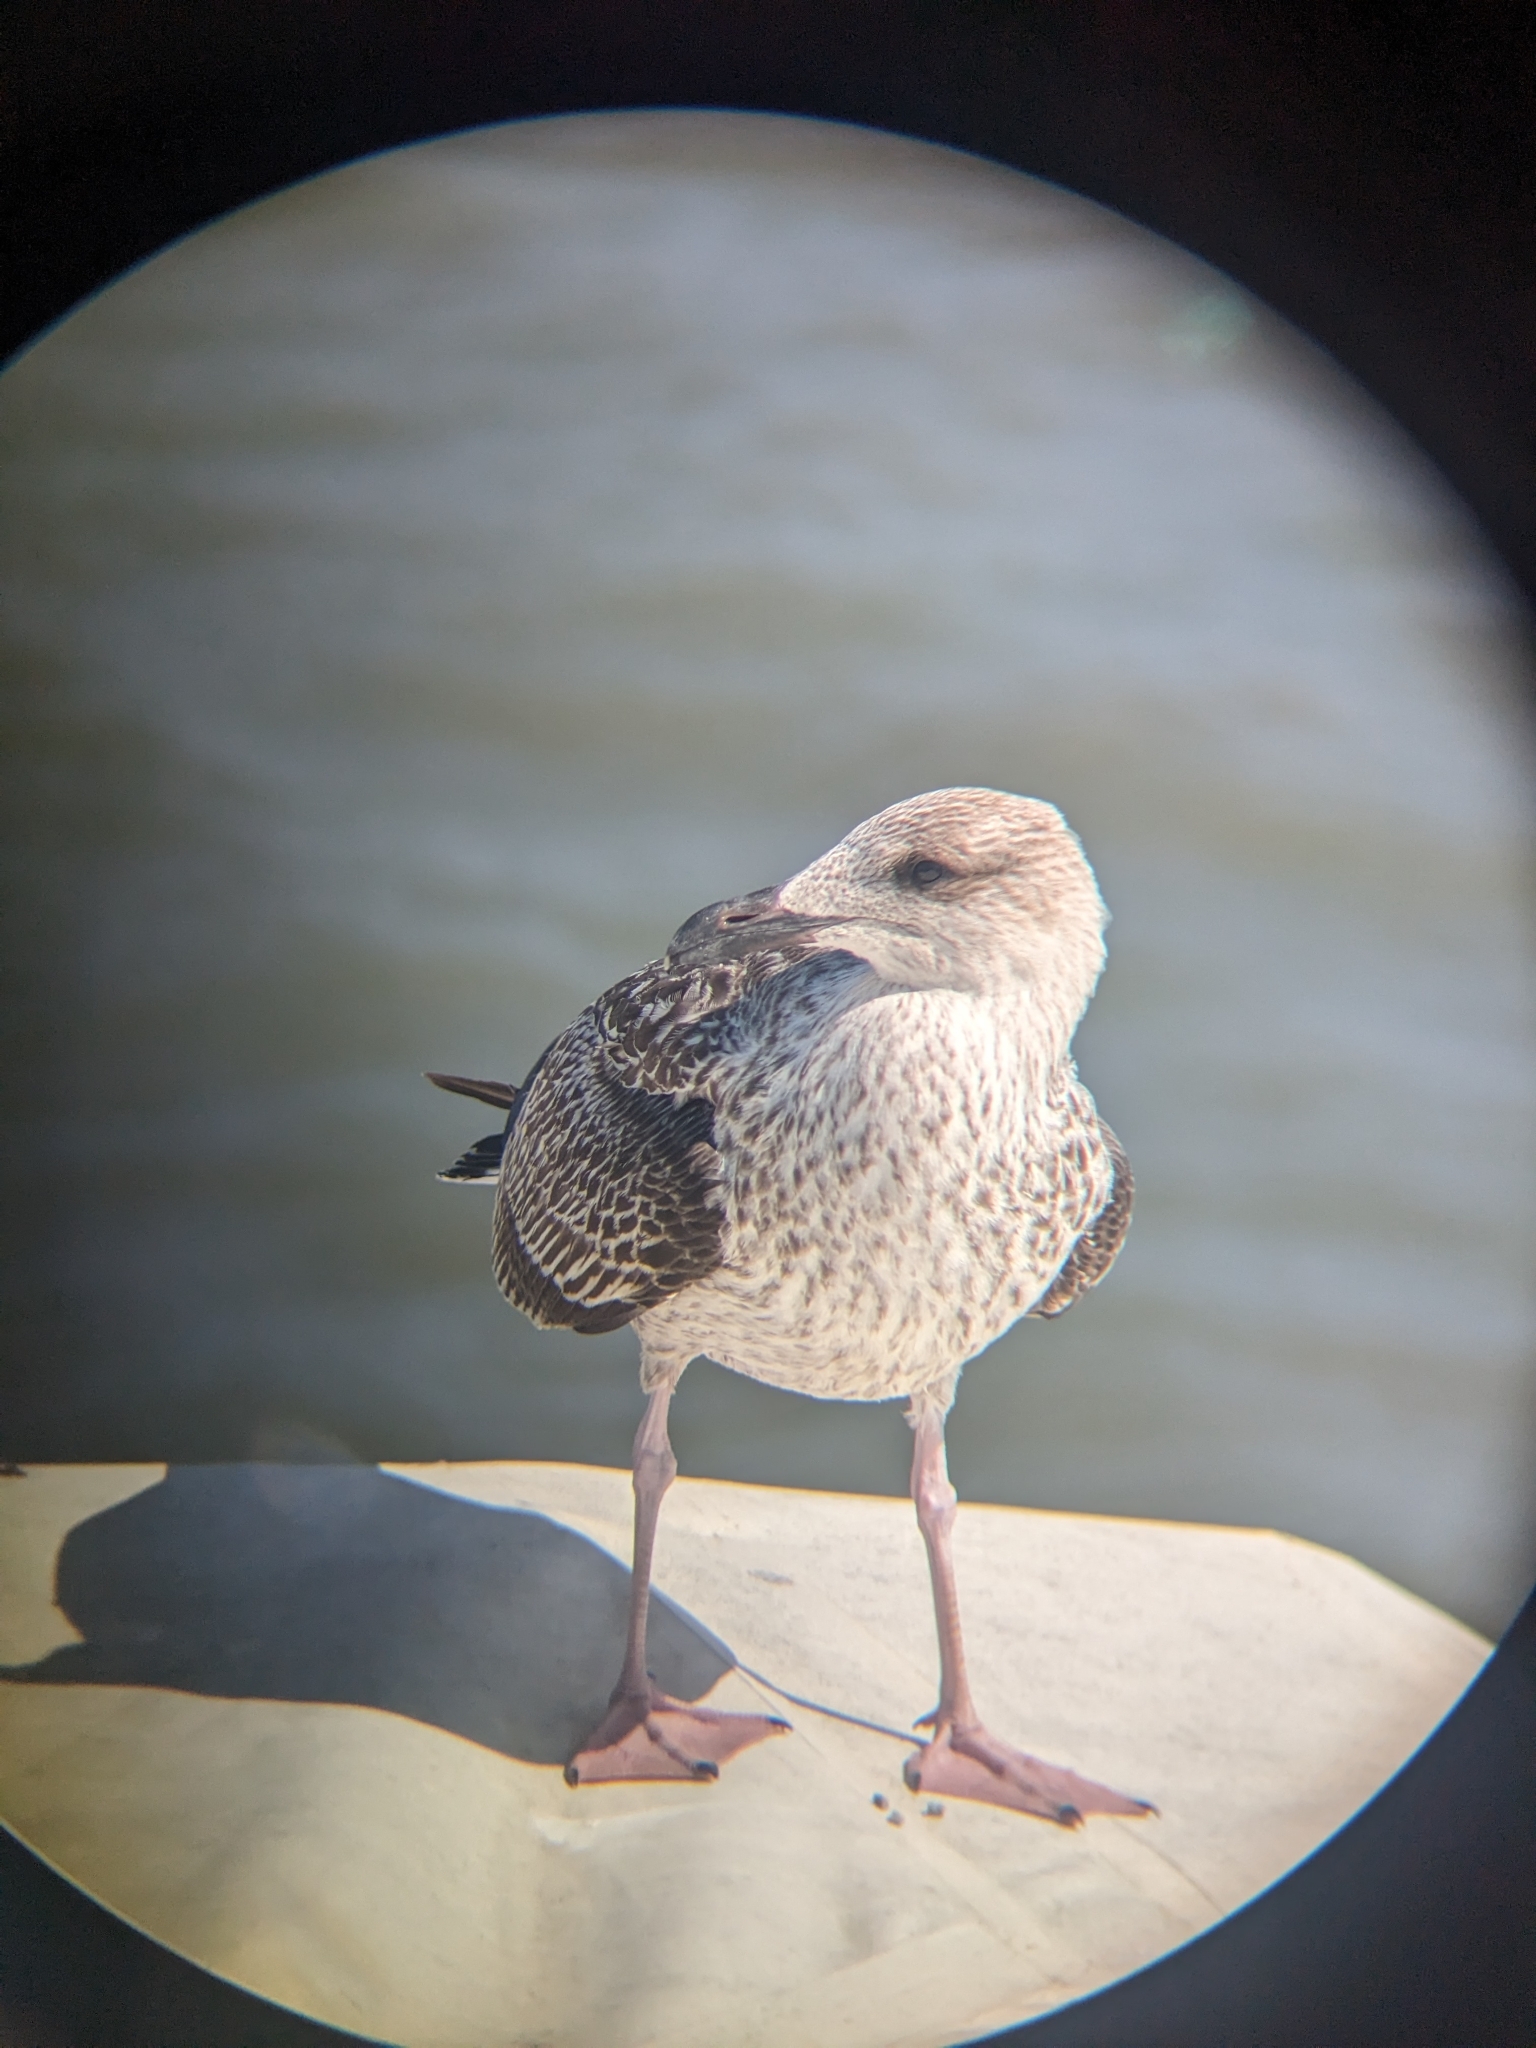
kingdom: Animalia
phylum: Chordata
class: Aves
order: Charadriiformes
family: Laridae
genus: Larus
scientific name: Larus marinus
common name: Great black-backed gull
